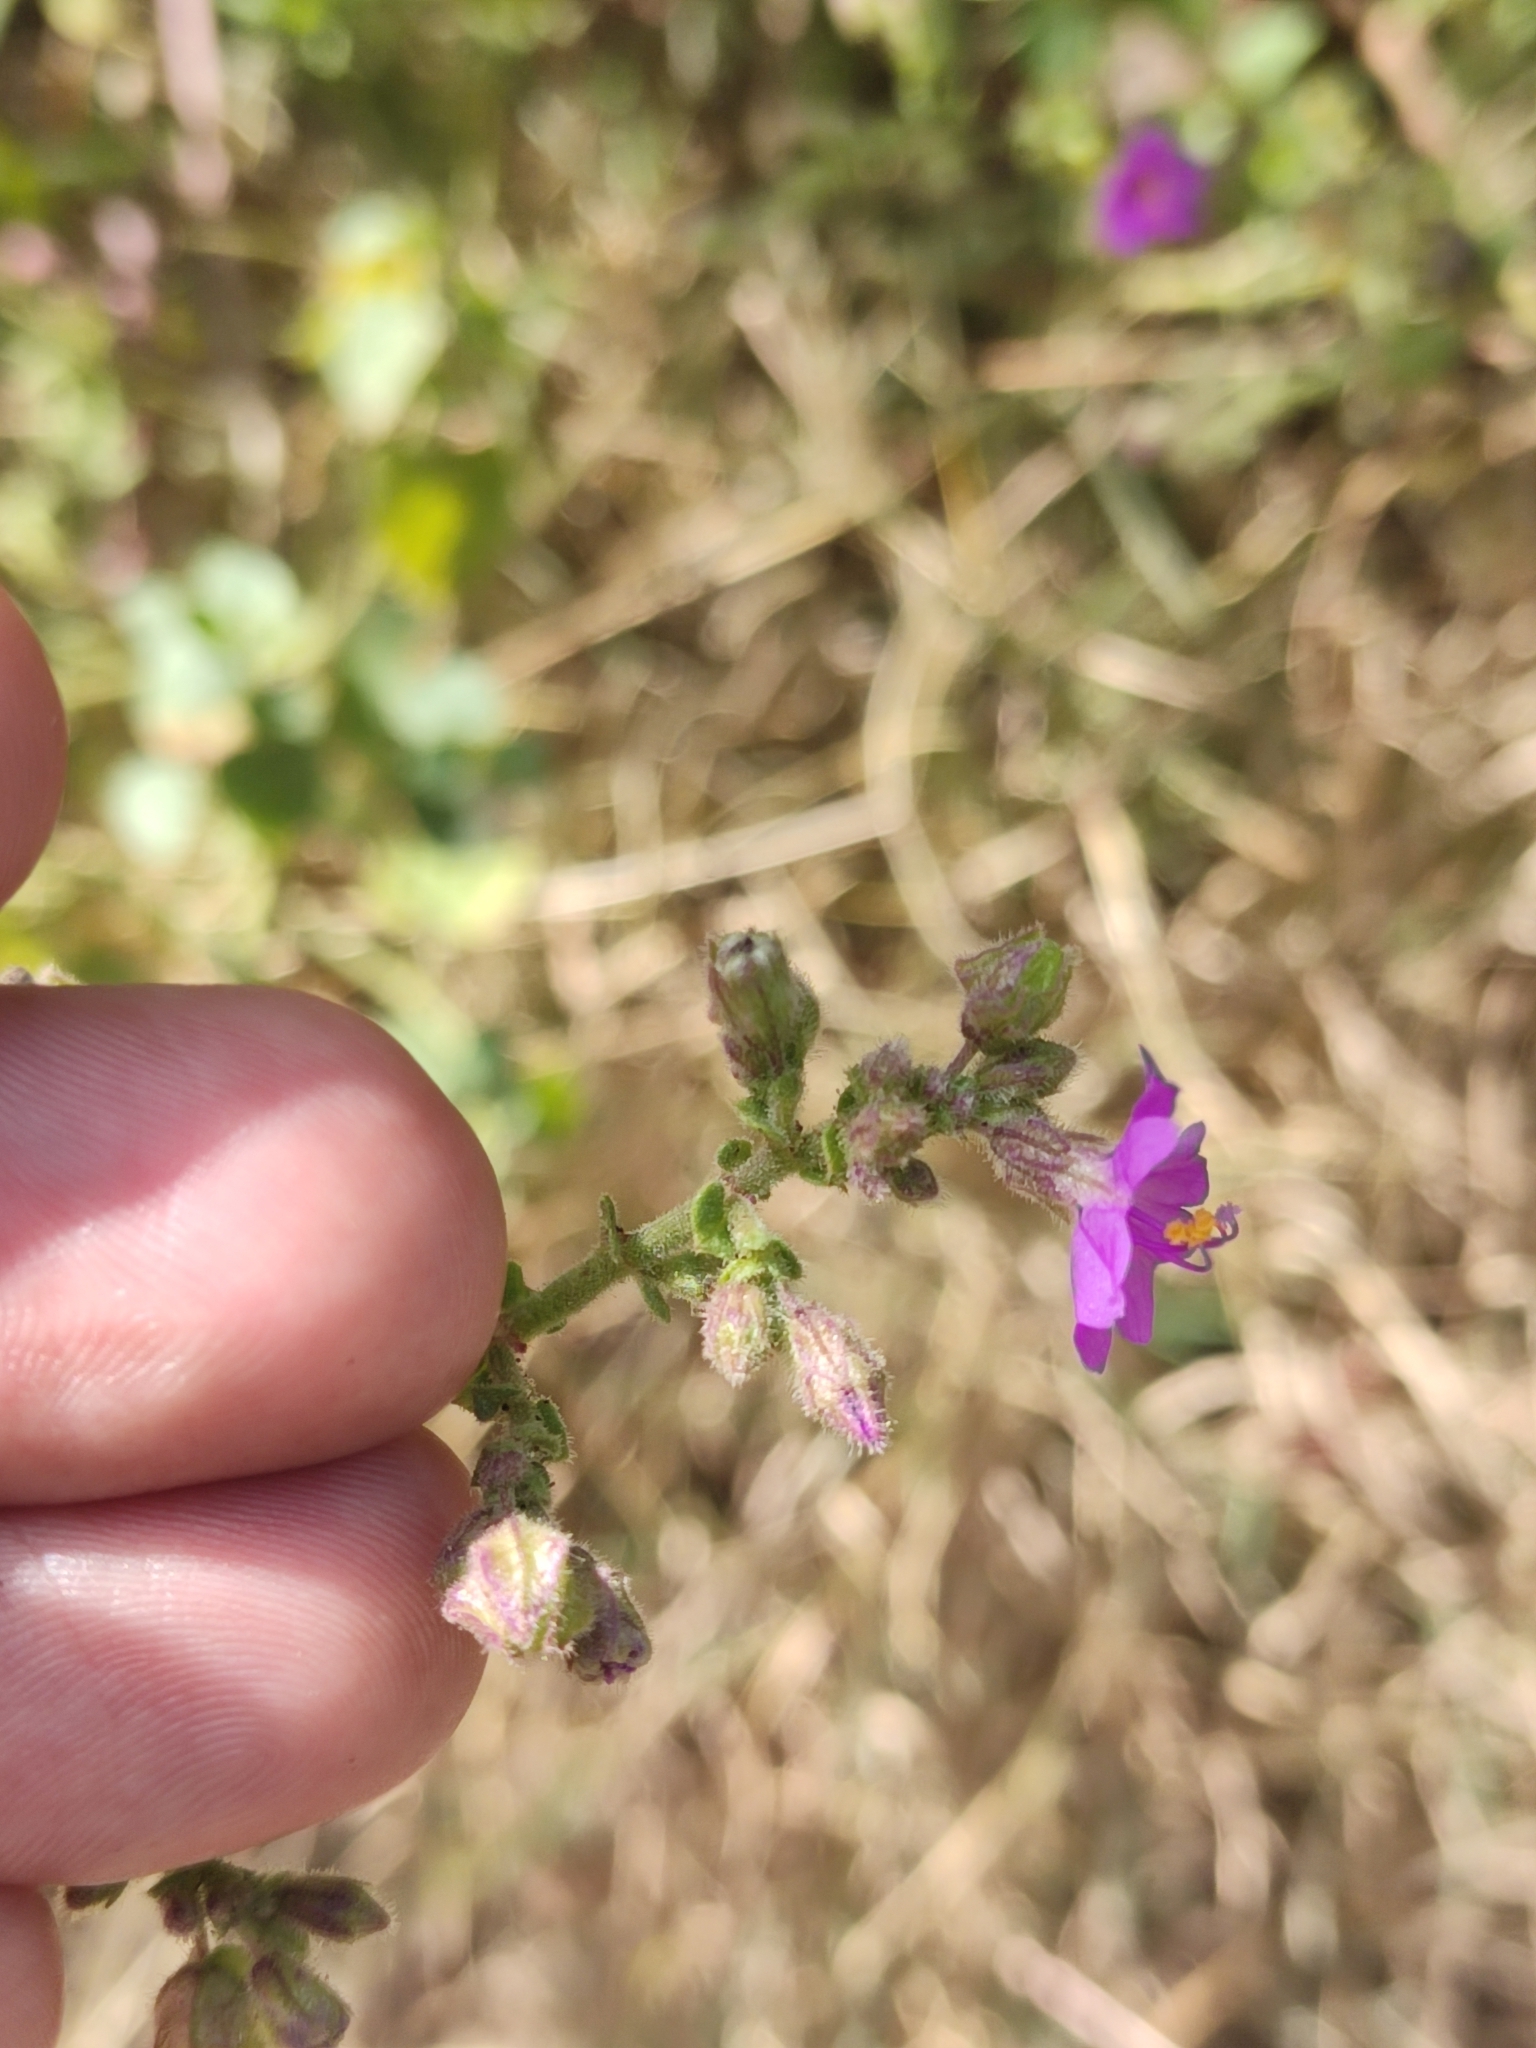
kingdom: Plantae
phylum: Tracheophyta
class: Magnoliopsida
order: Caryophyllales
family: Nyctaginaceae
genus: Mirabilis
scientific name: Mirabilis viscosa
